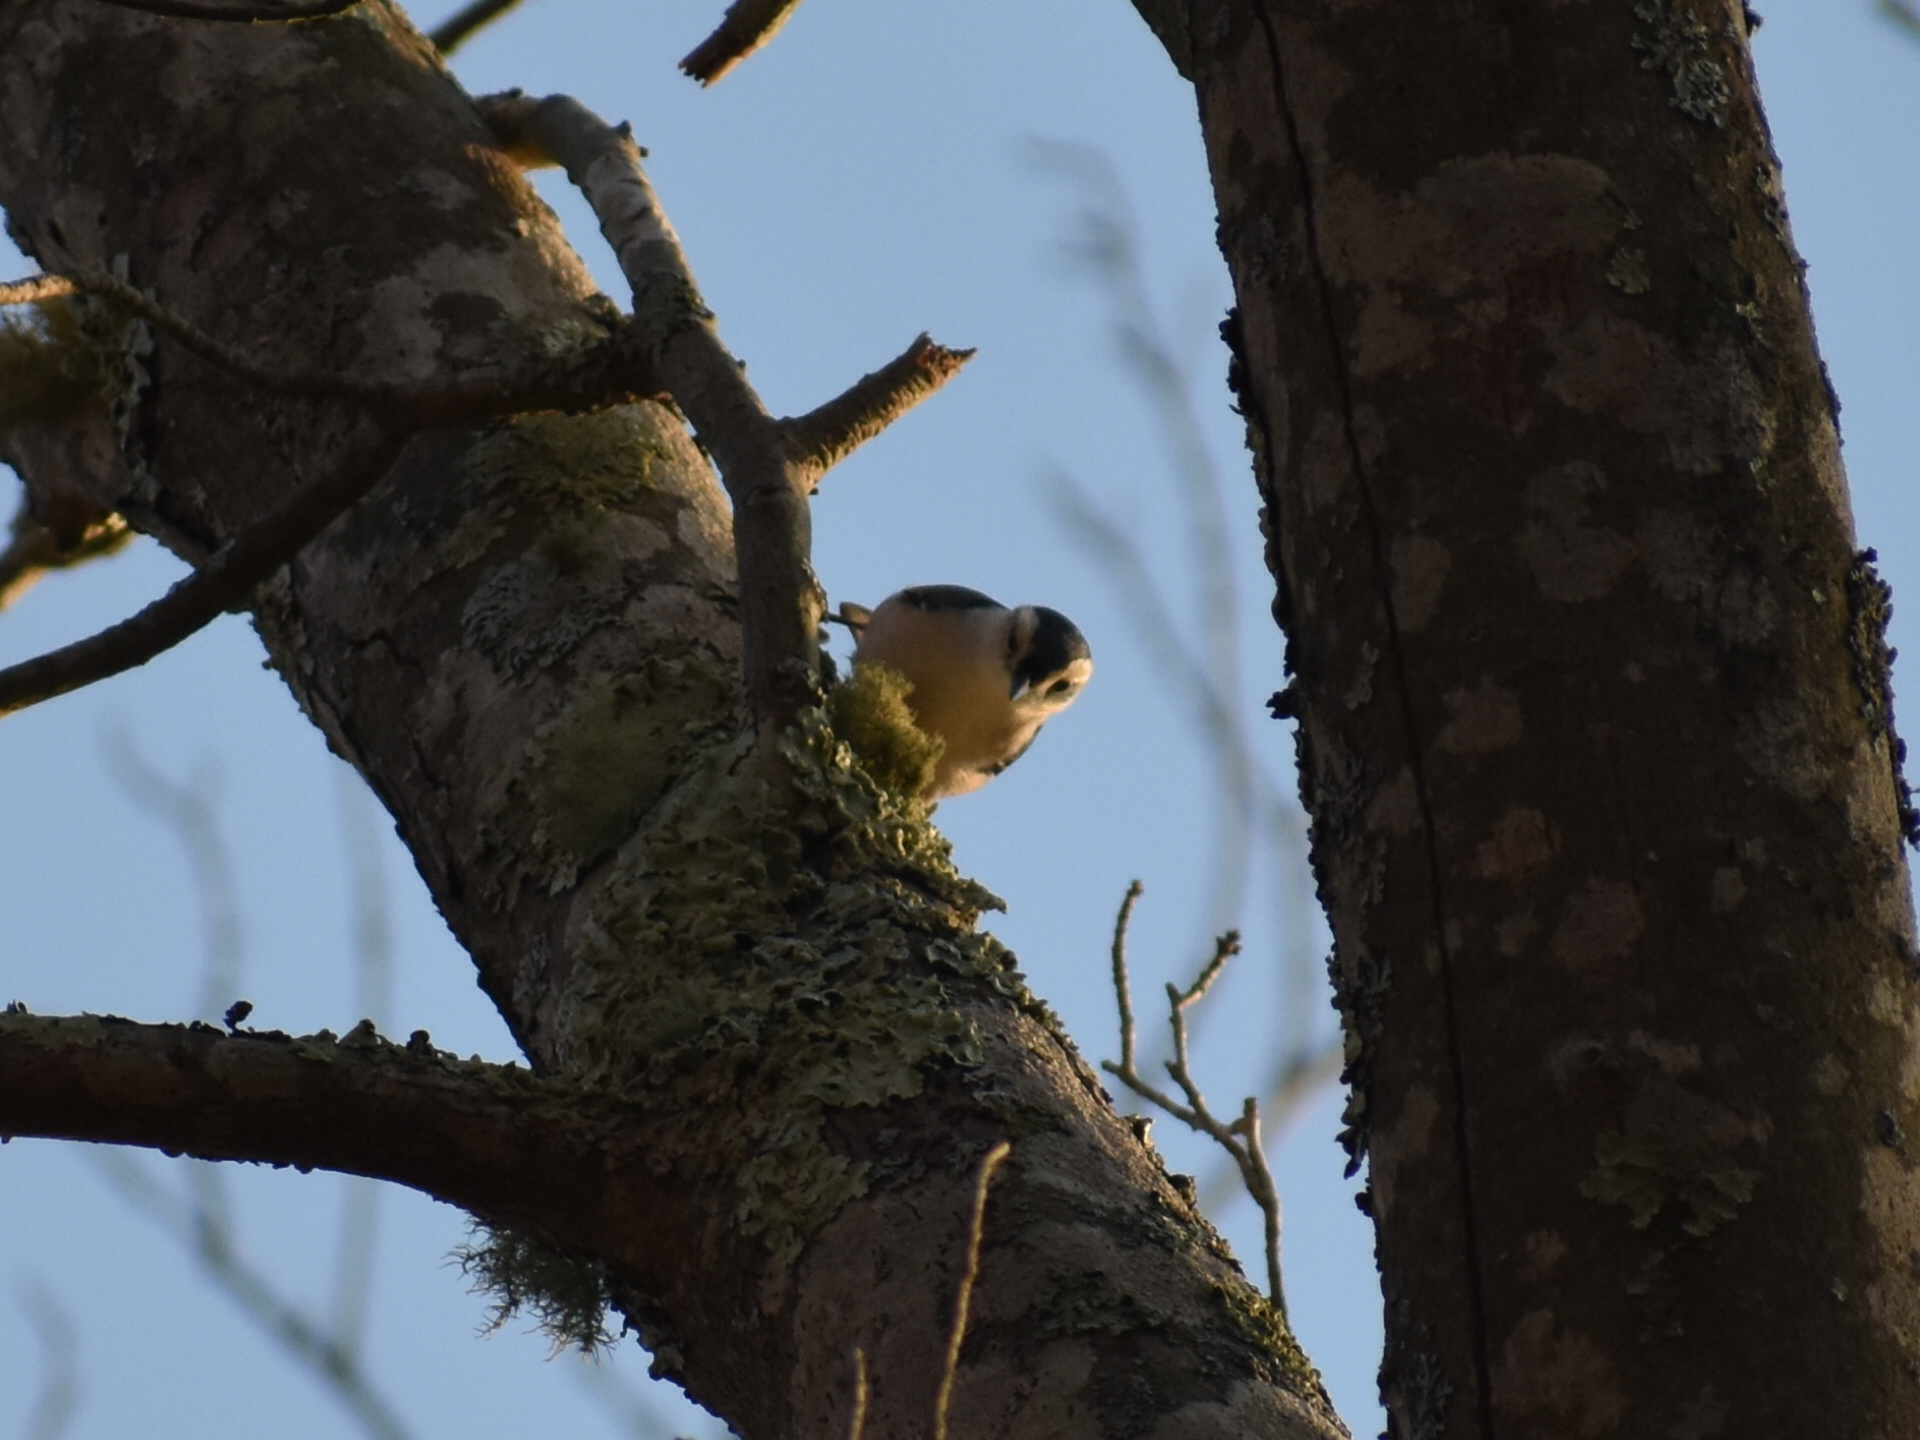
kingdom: Animalia
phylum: Chordata
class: Aves
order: Passeriformes
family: Sittidae
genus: Sitta
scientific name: Sitta carolinensis
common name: White-breasted nuthatch
